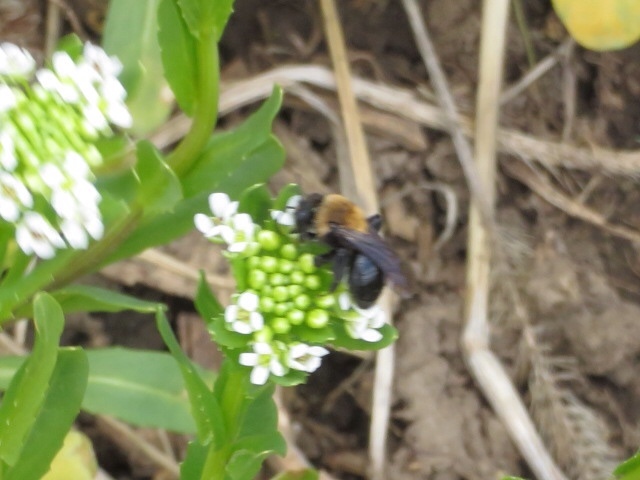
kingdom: Animalia
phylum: Arthropoda
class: Insecta
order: Hymenoptera
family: Andrenidae
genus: Andrena
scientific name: Andrena carlini
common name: Carlin's mining bee
